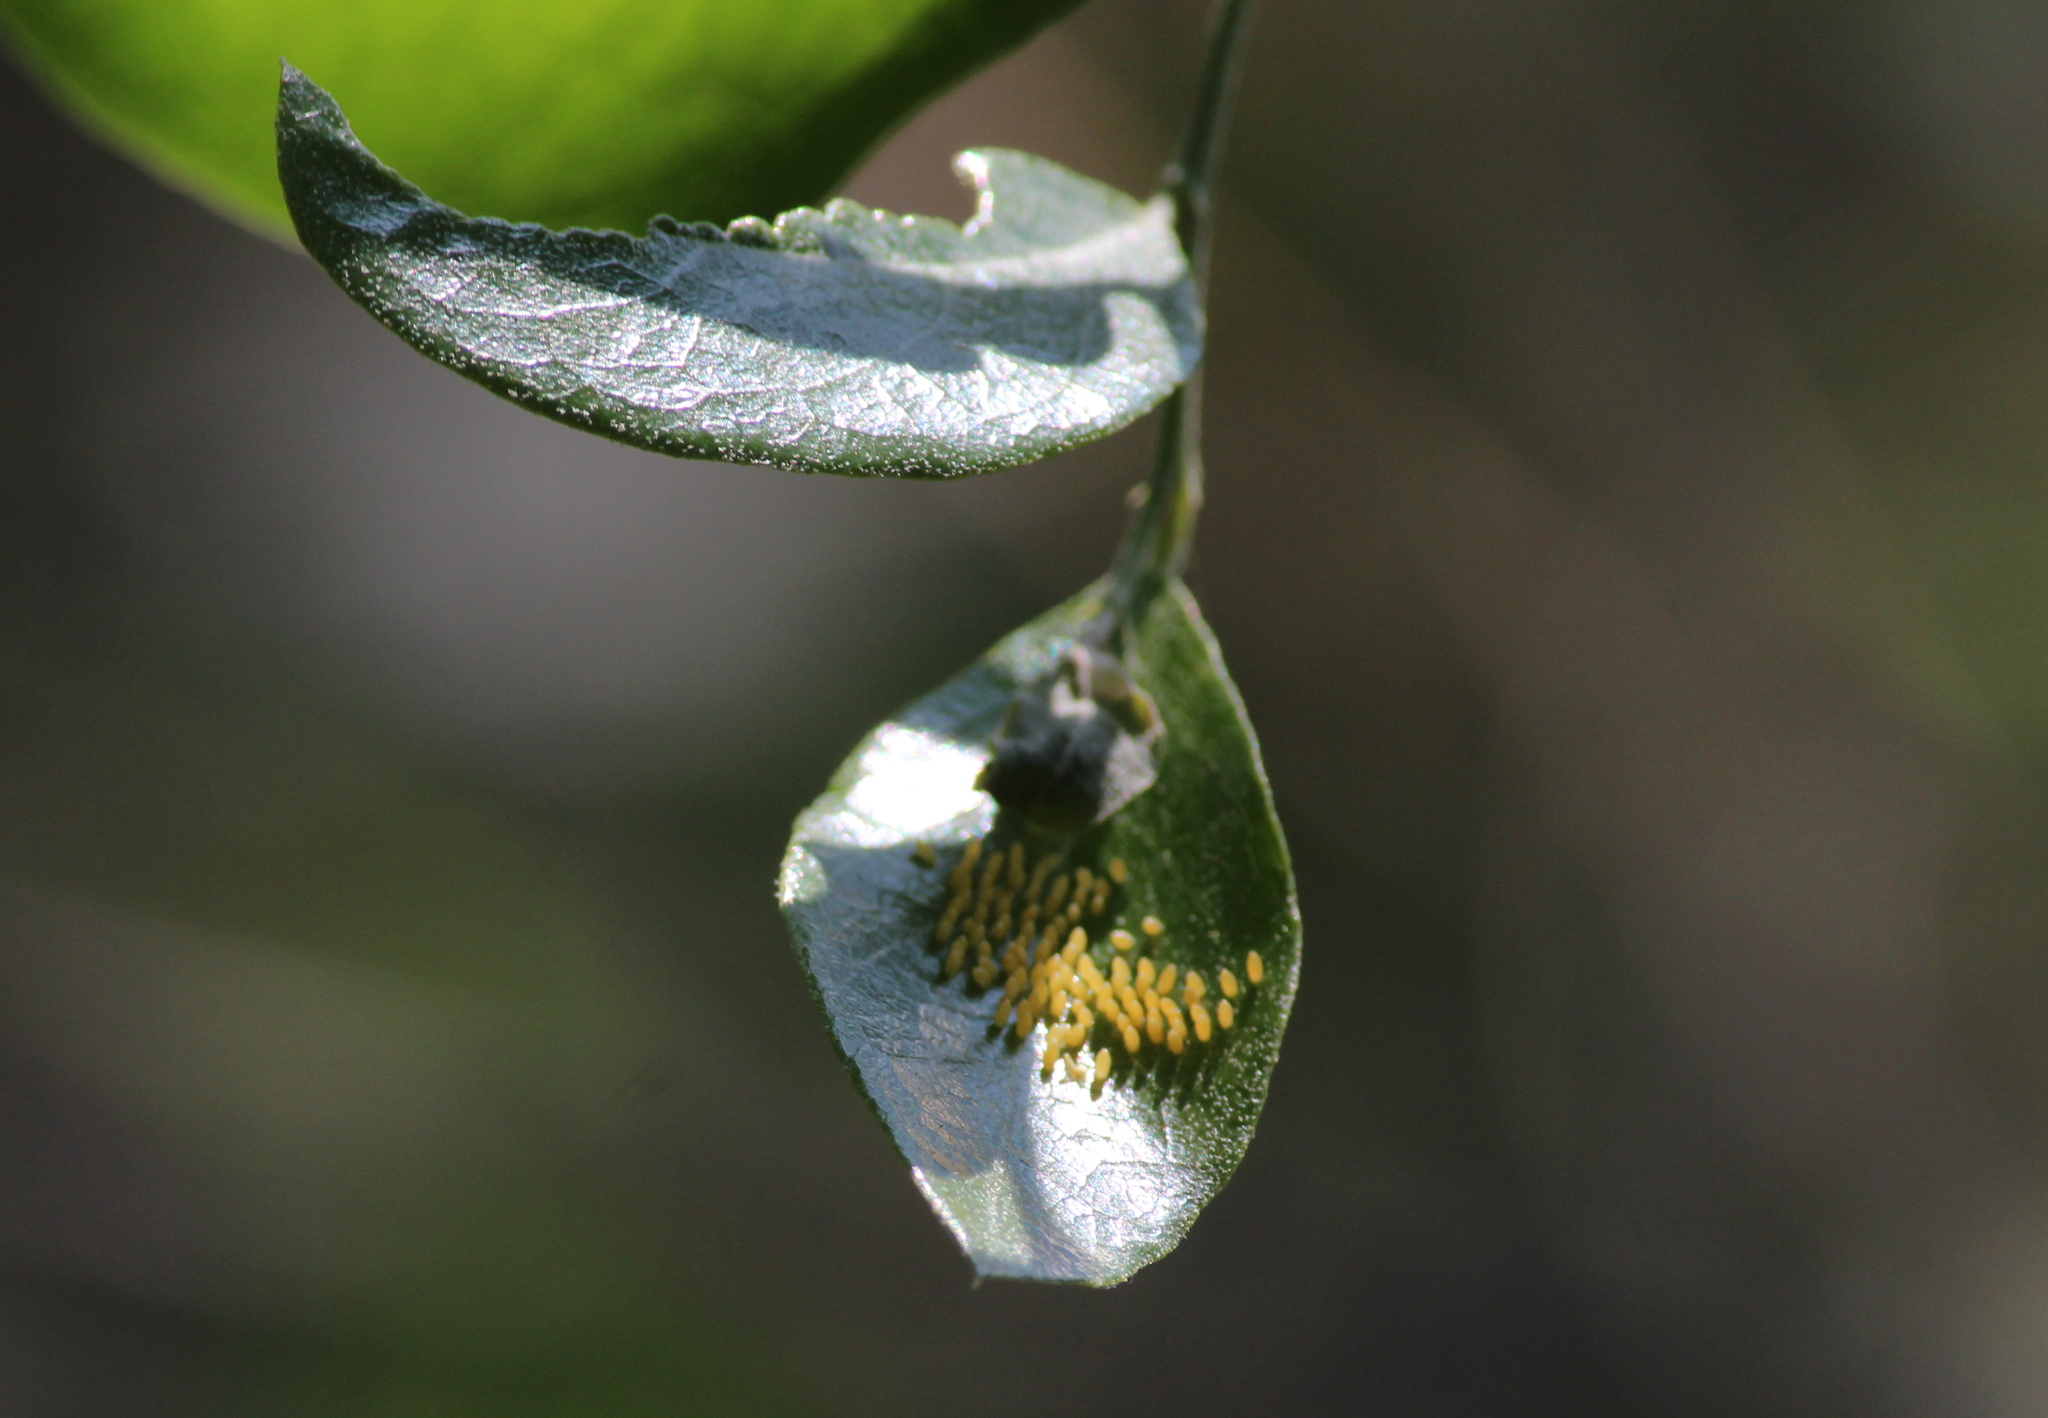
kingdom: Animalia
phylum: Arthropoda
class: Insecta
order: Lepidoptera
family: Pieridae
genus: Belenois
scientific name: Belenois aurota
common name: Brown-veined white
